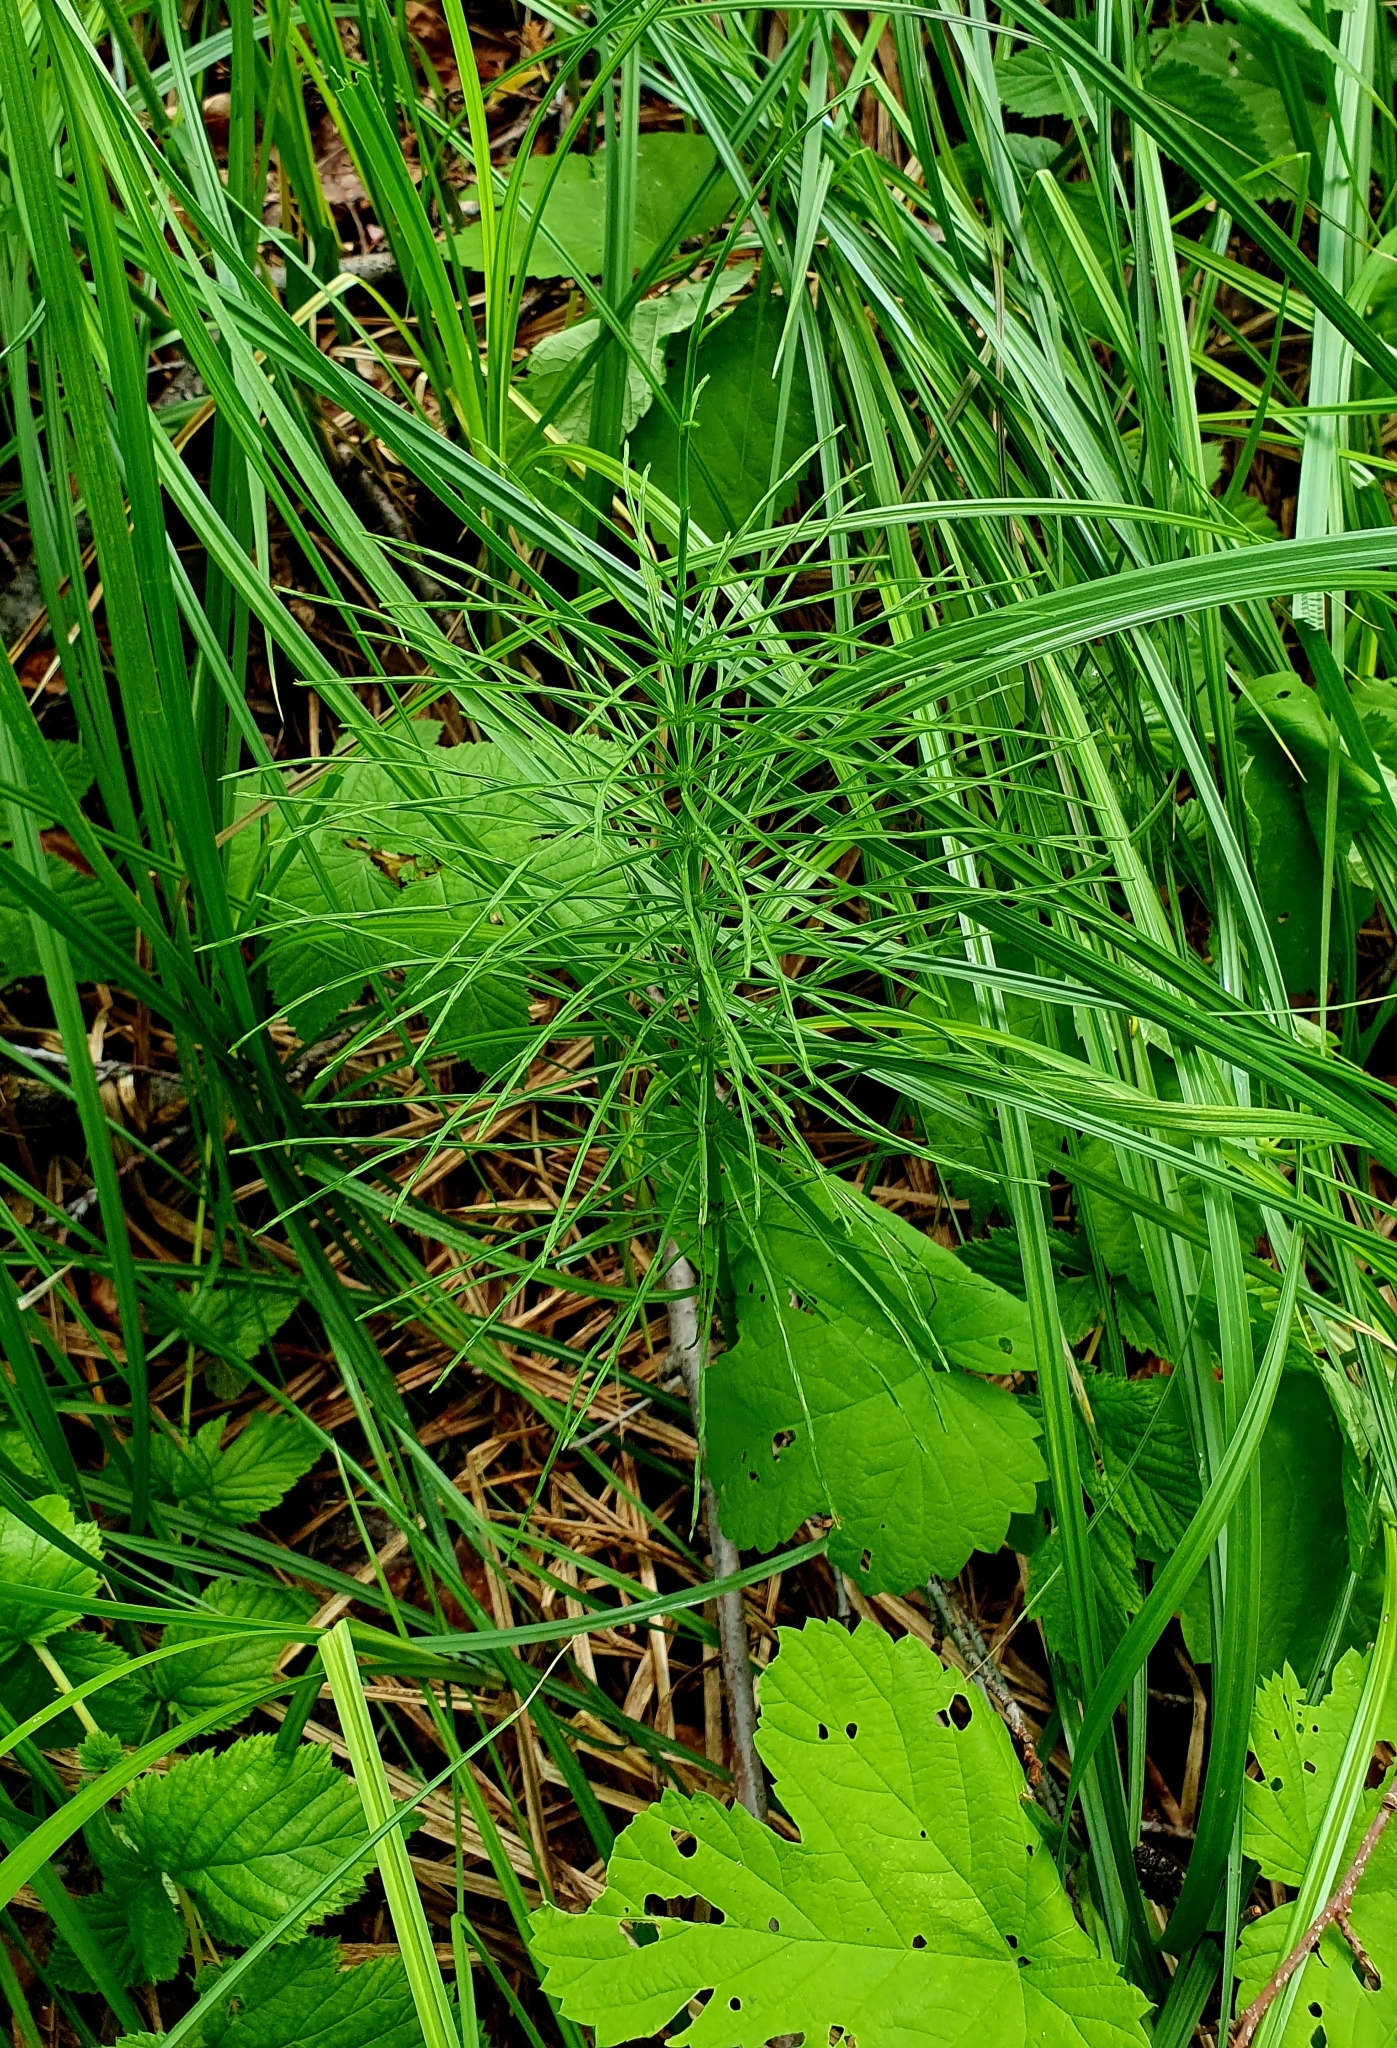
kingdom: Plantae
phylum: Tracheophyta
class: Polypodiopsida
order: Equisetales
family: Equisetaceae
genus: Equisetum
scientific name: Equisetum arvense
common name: Field horsetail
